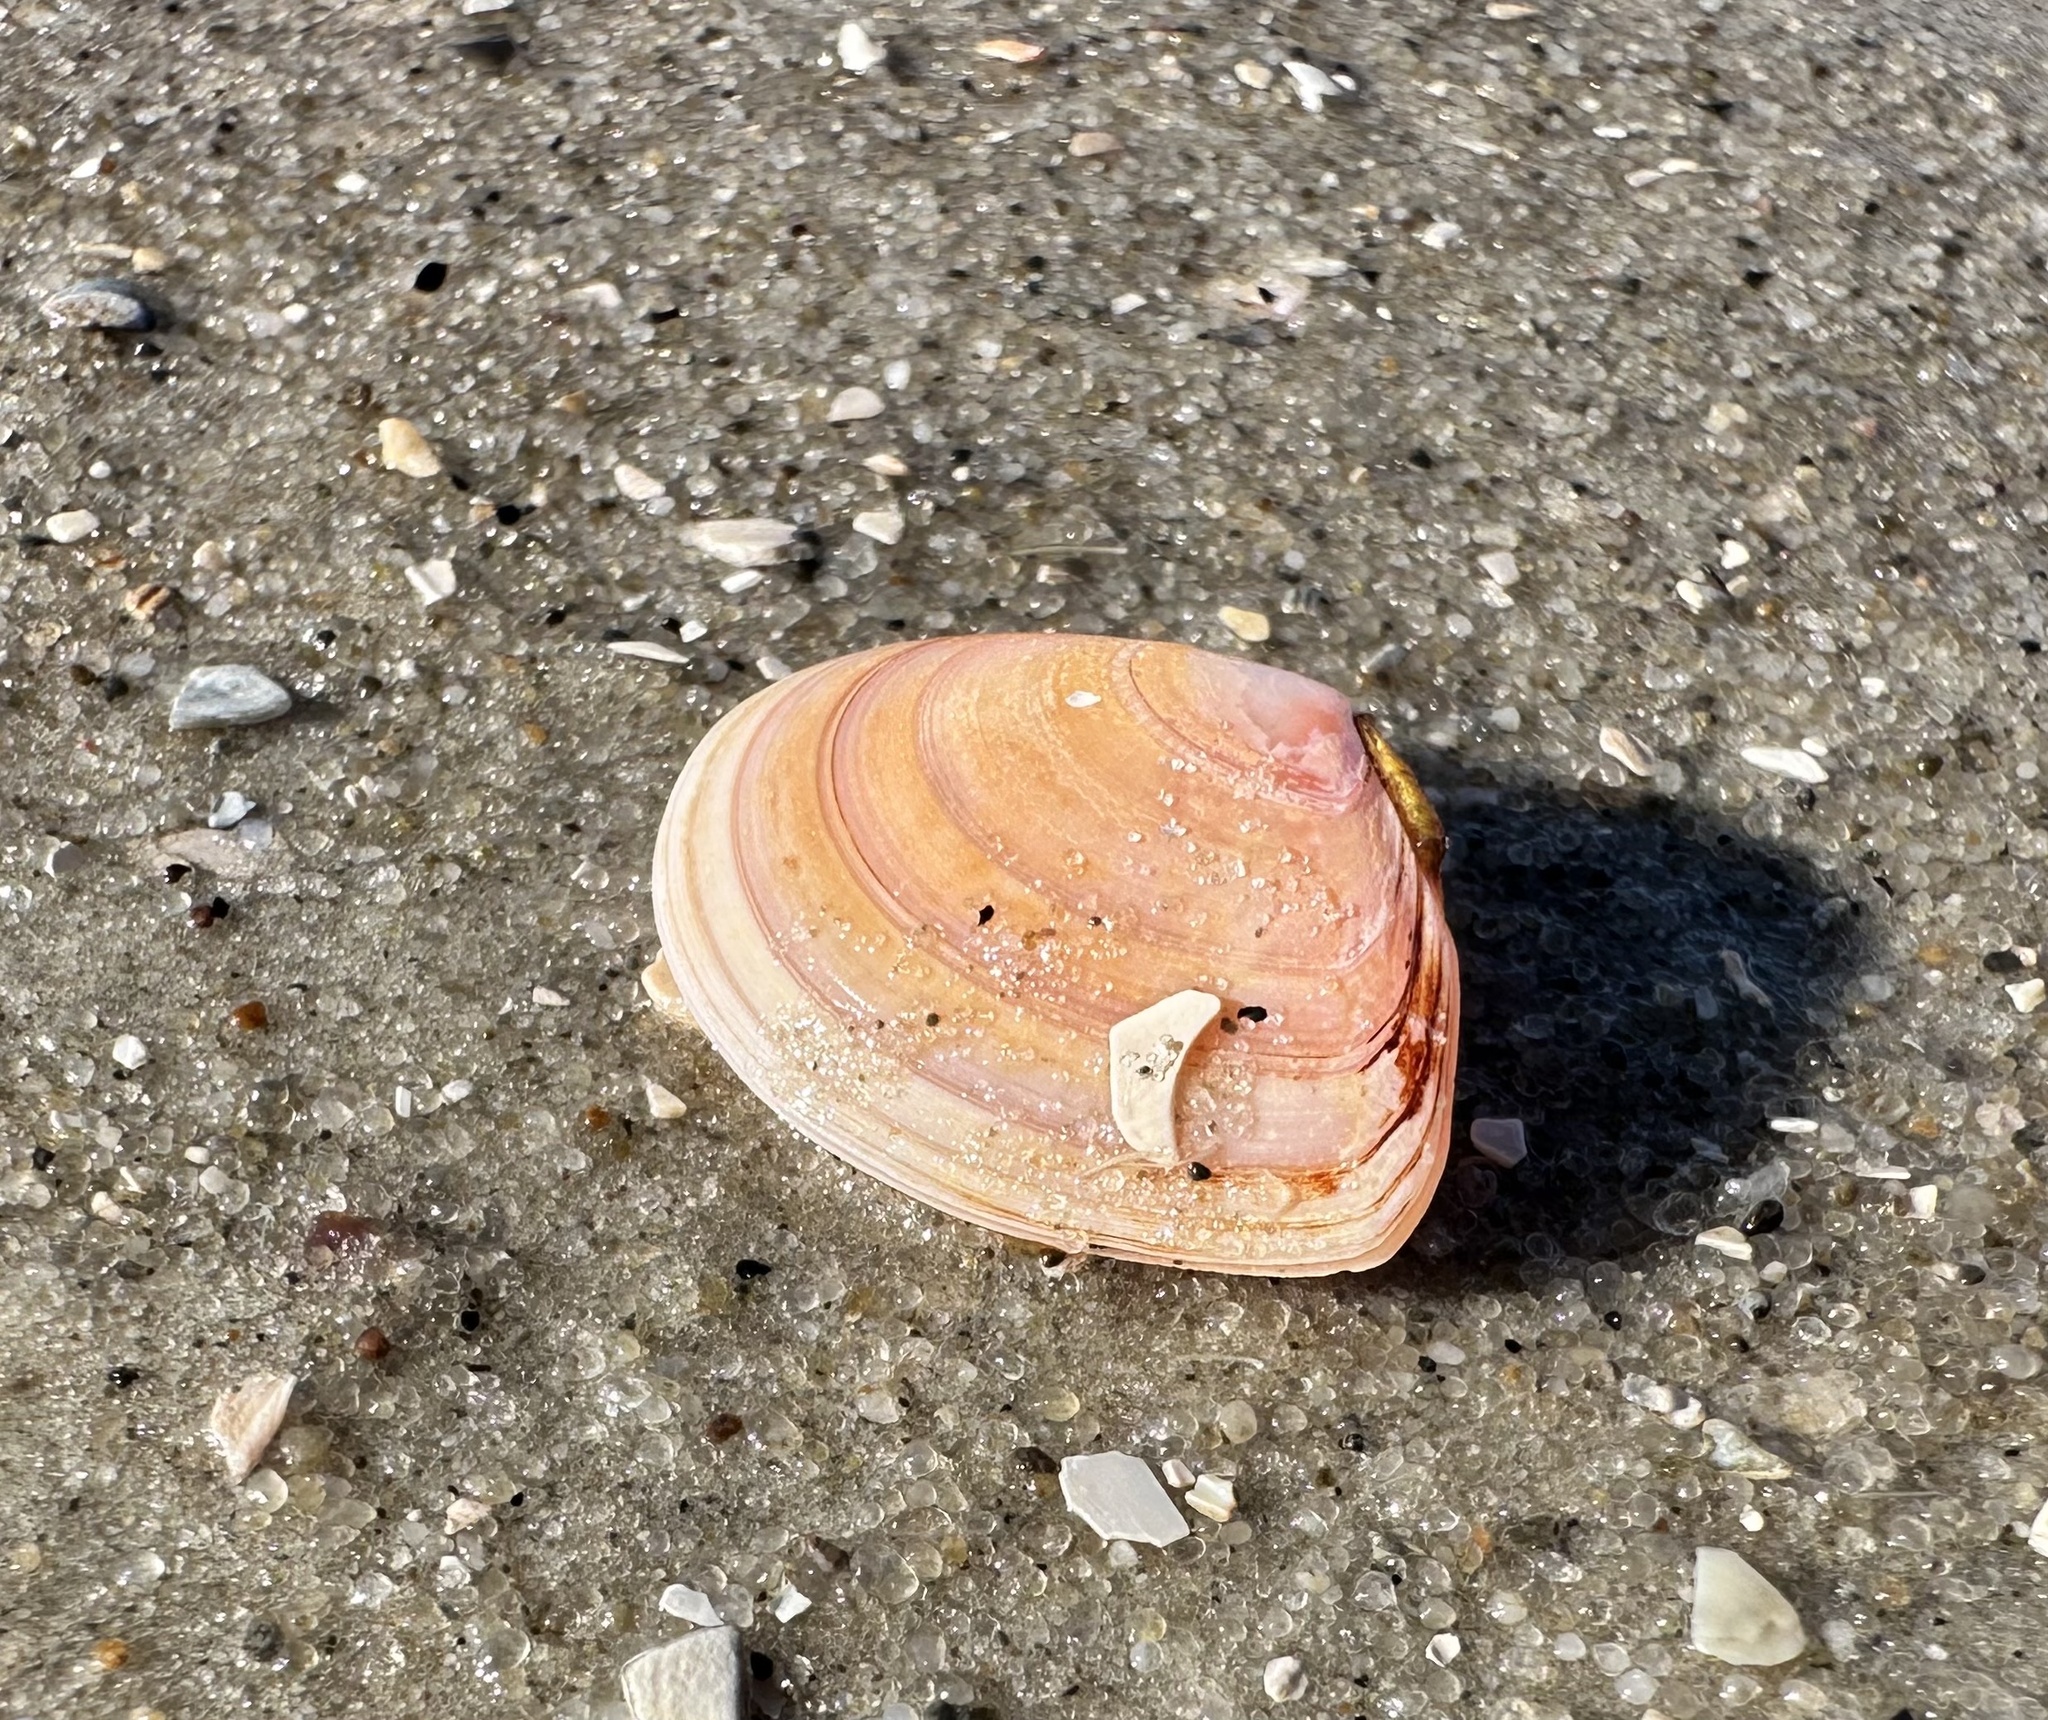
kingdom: Animalia
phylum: Mollusca
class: Bivalvia
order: Cardiida
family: Tellinidae
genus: Macomangulus
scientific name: Macomangulus tenuis
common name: Thin tellin
